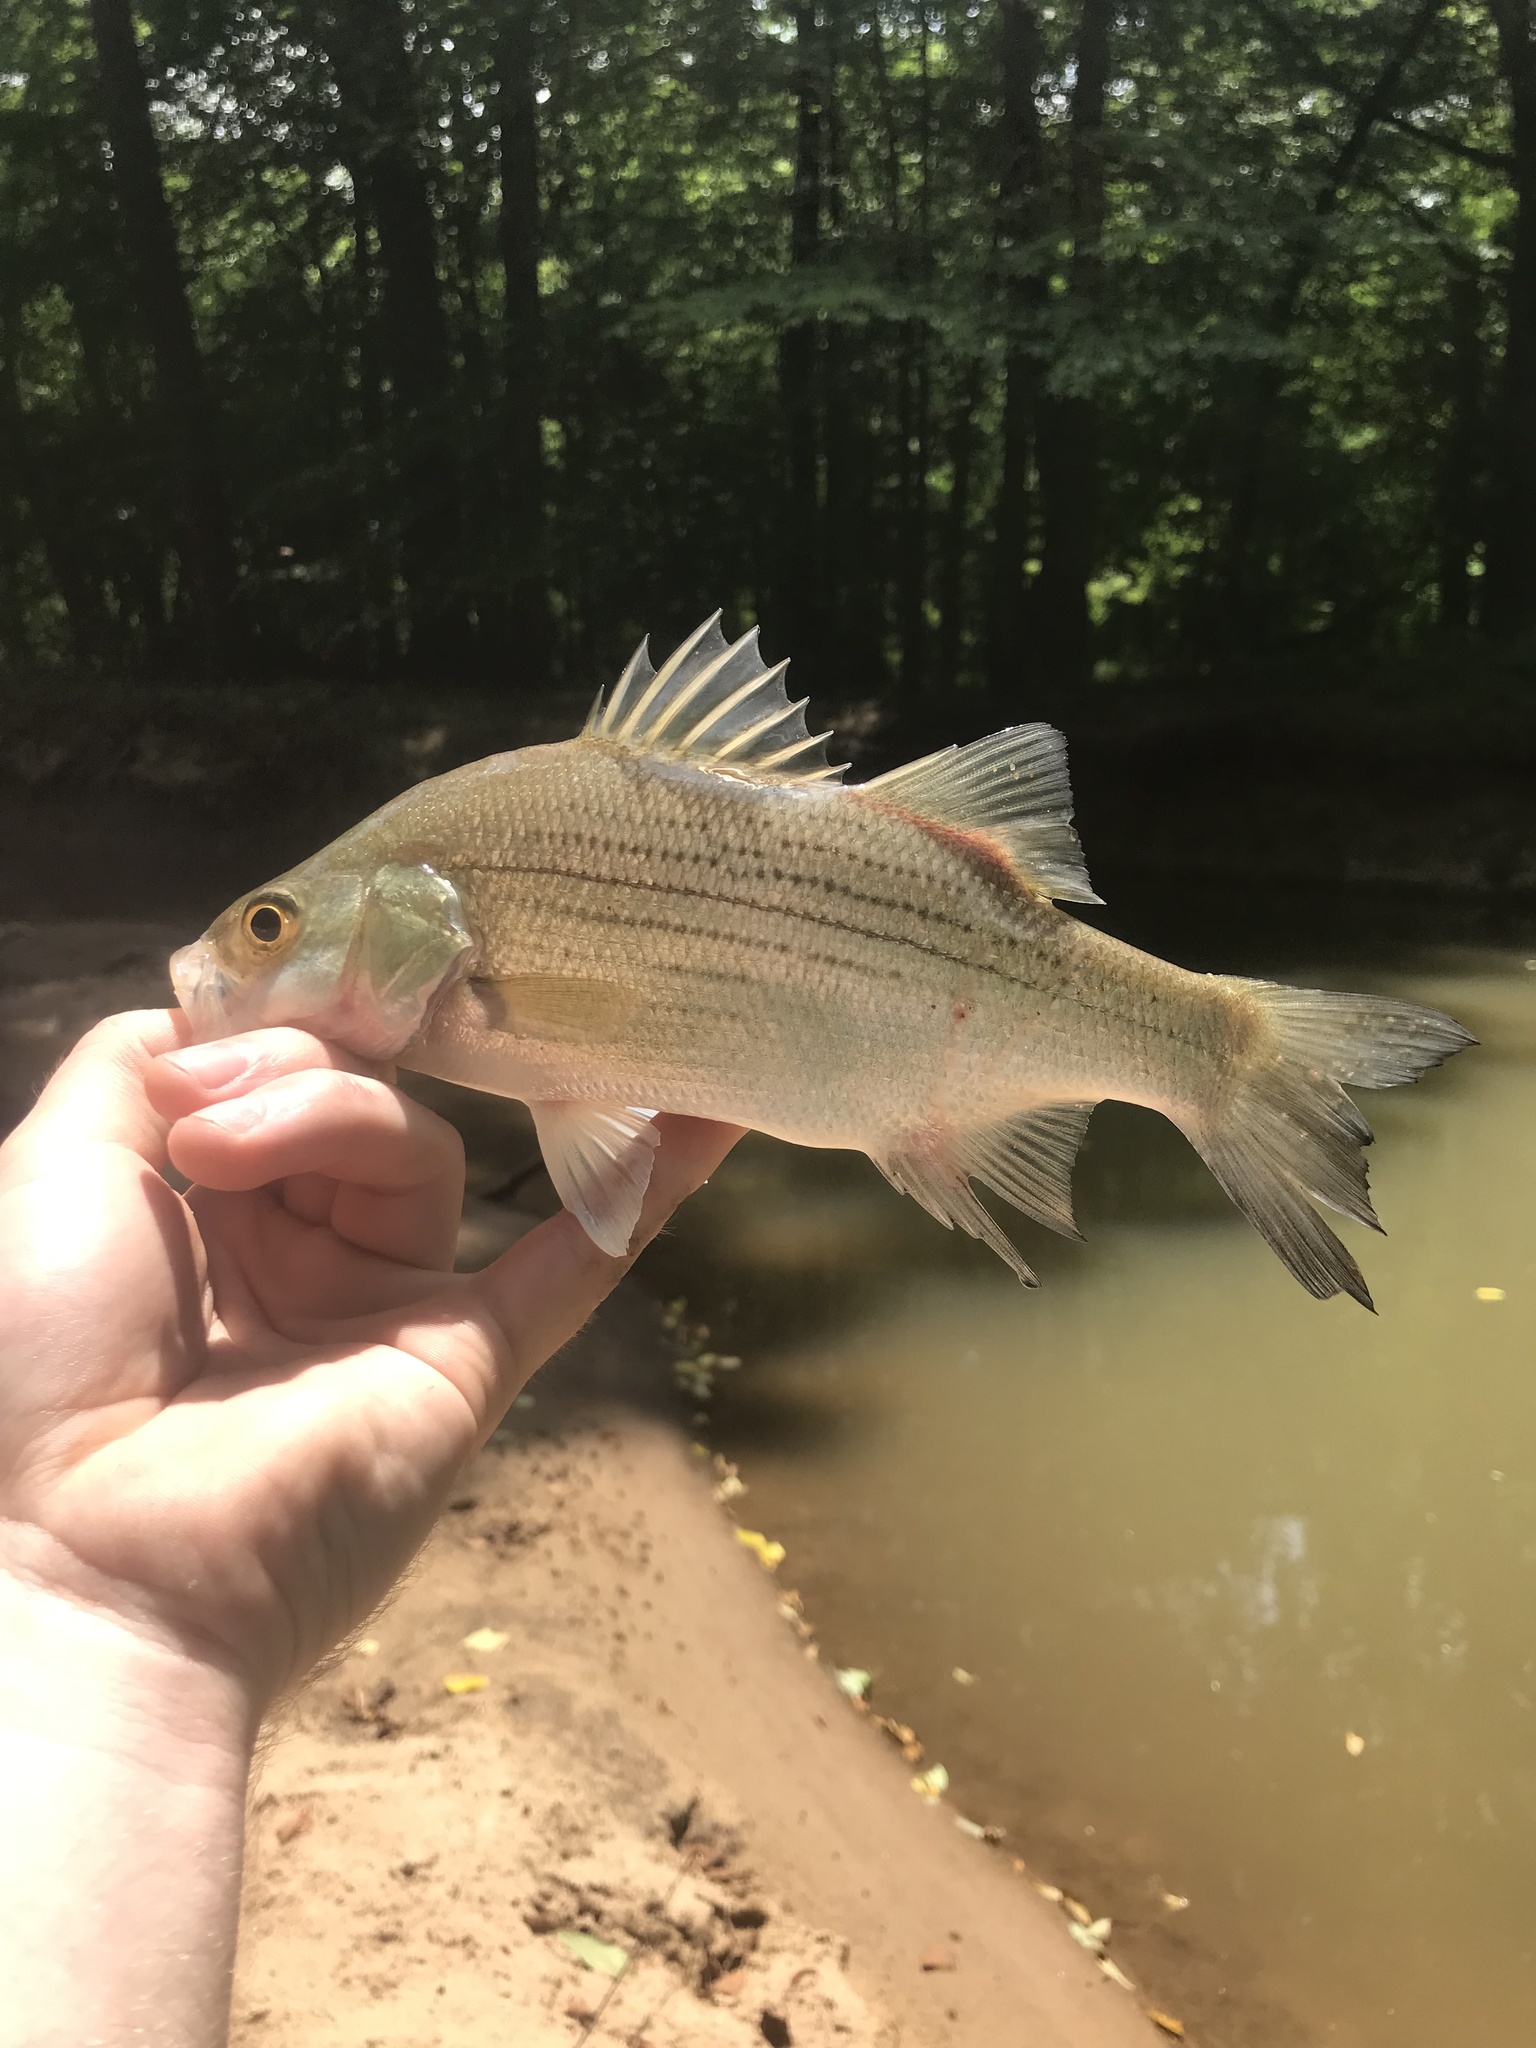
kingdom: Animalia
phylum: Chordata
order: Perciformes
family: Moronidae
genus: Morone
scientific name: Morone chrysops
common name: White bass
